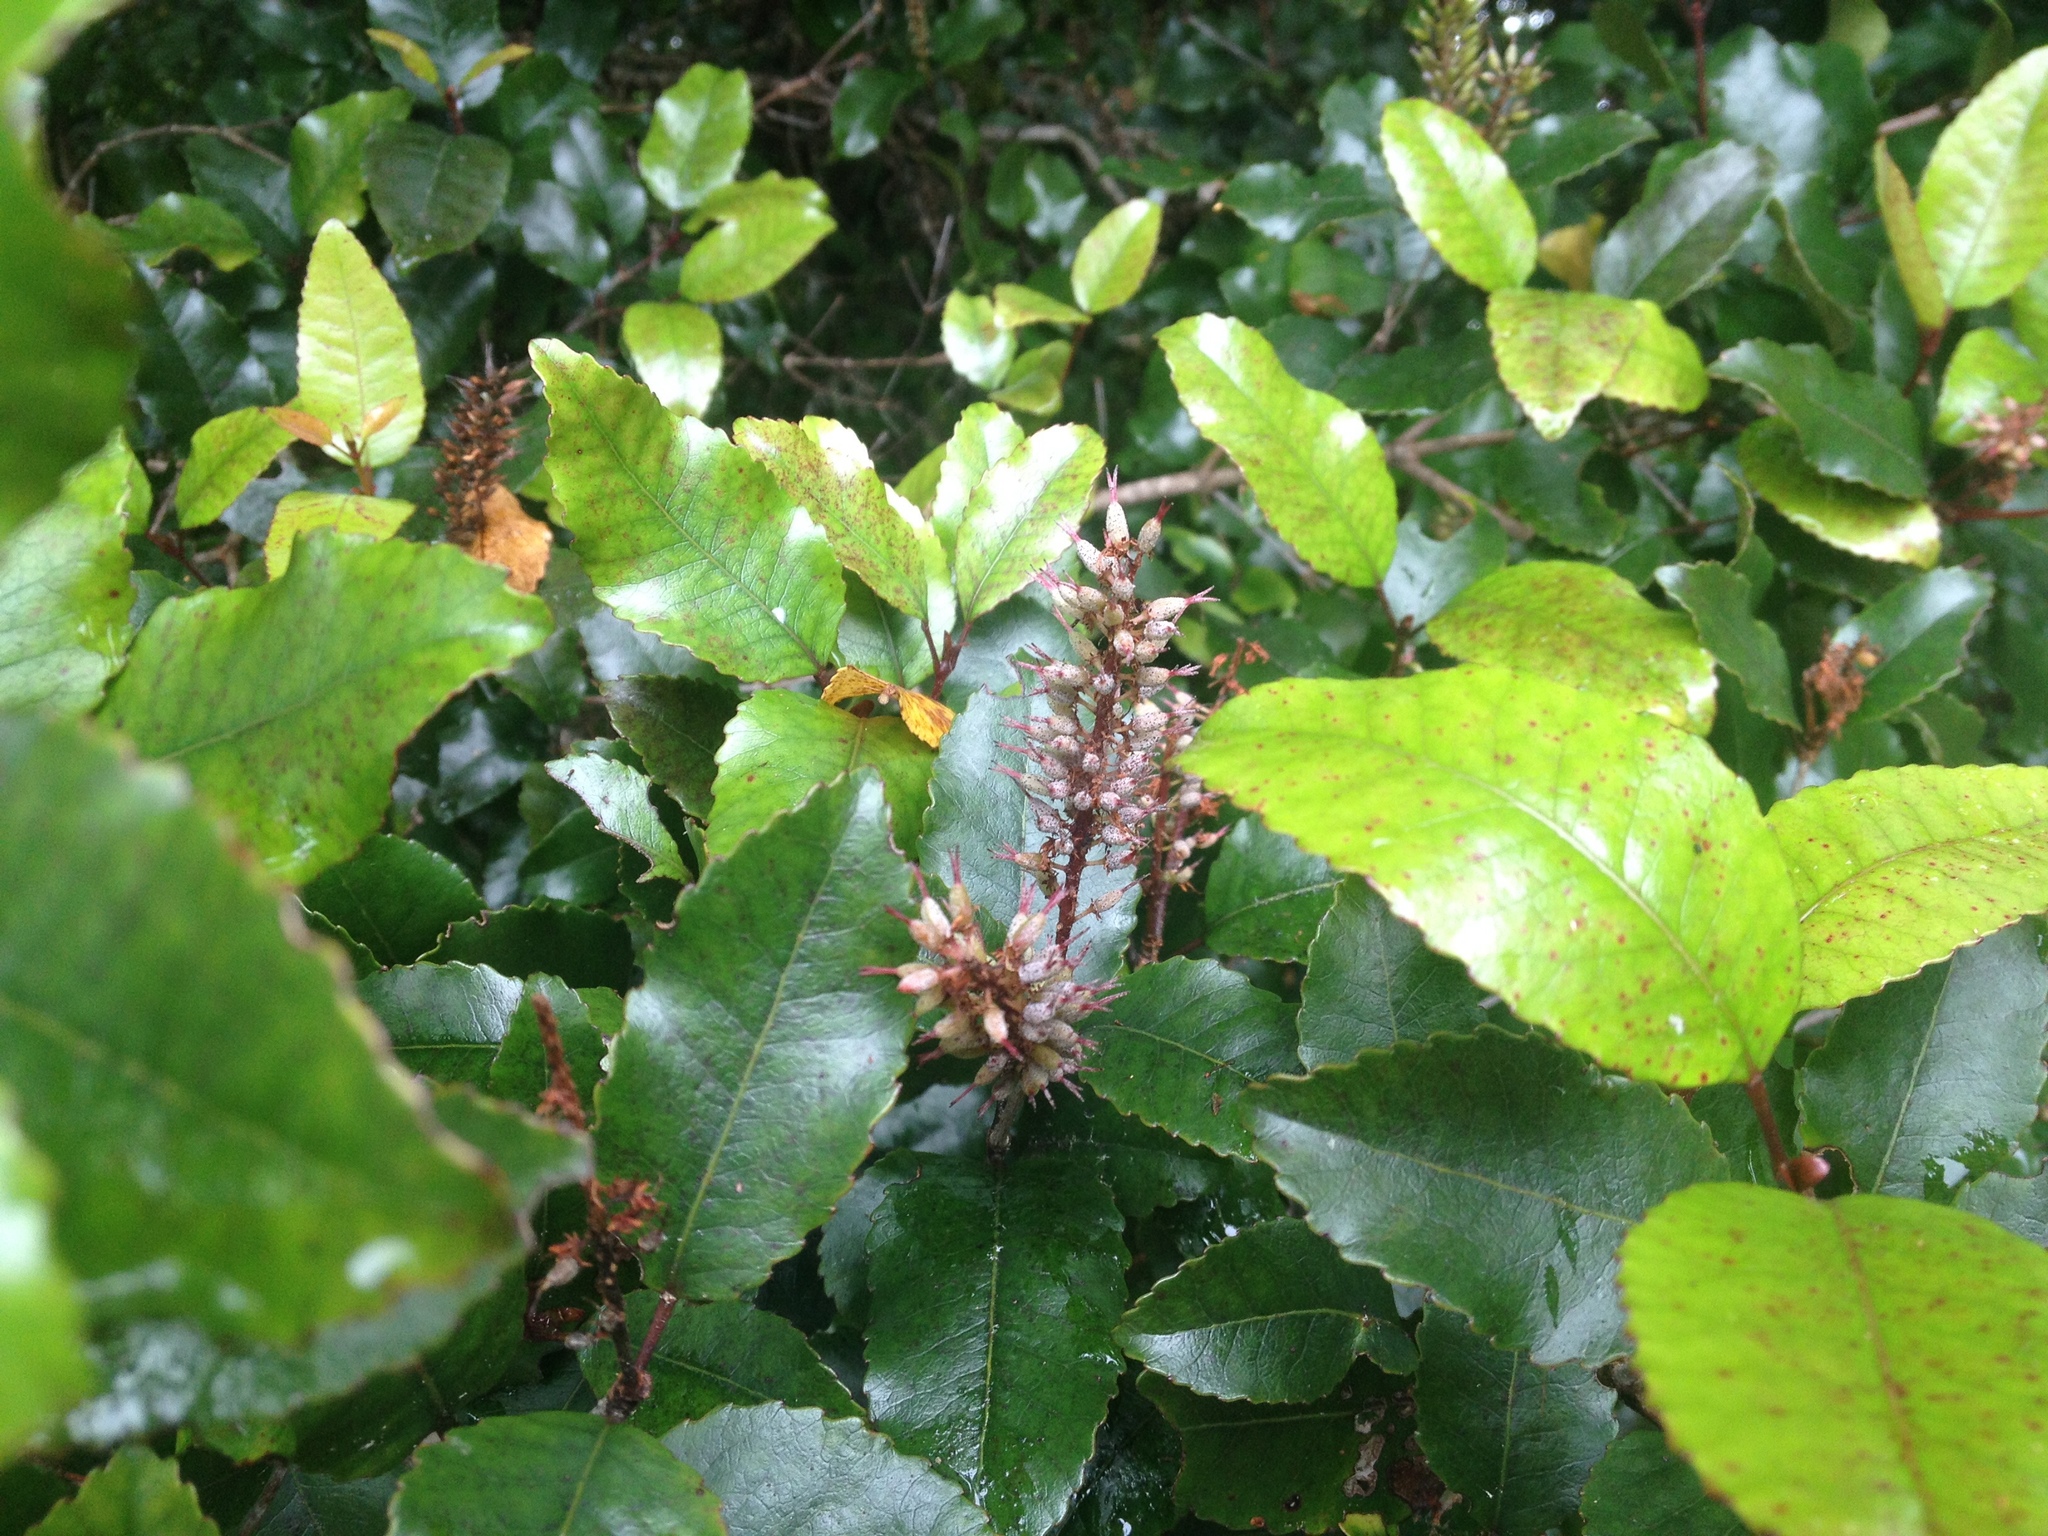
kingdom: Plantae
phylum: Tracheophyta
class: Magnoliopsida
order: Oxalidales
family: Cunoniaceae
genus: Pterophylla
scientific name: Pterophylla racemosa
